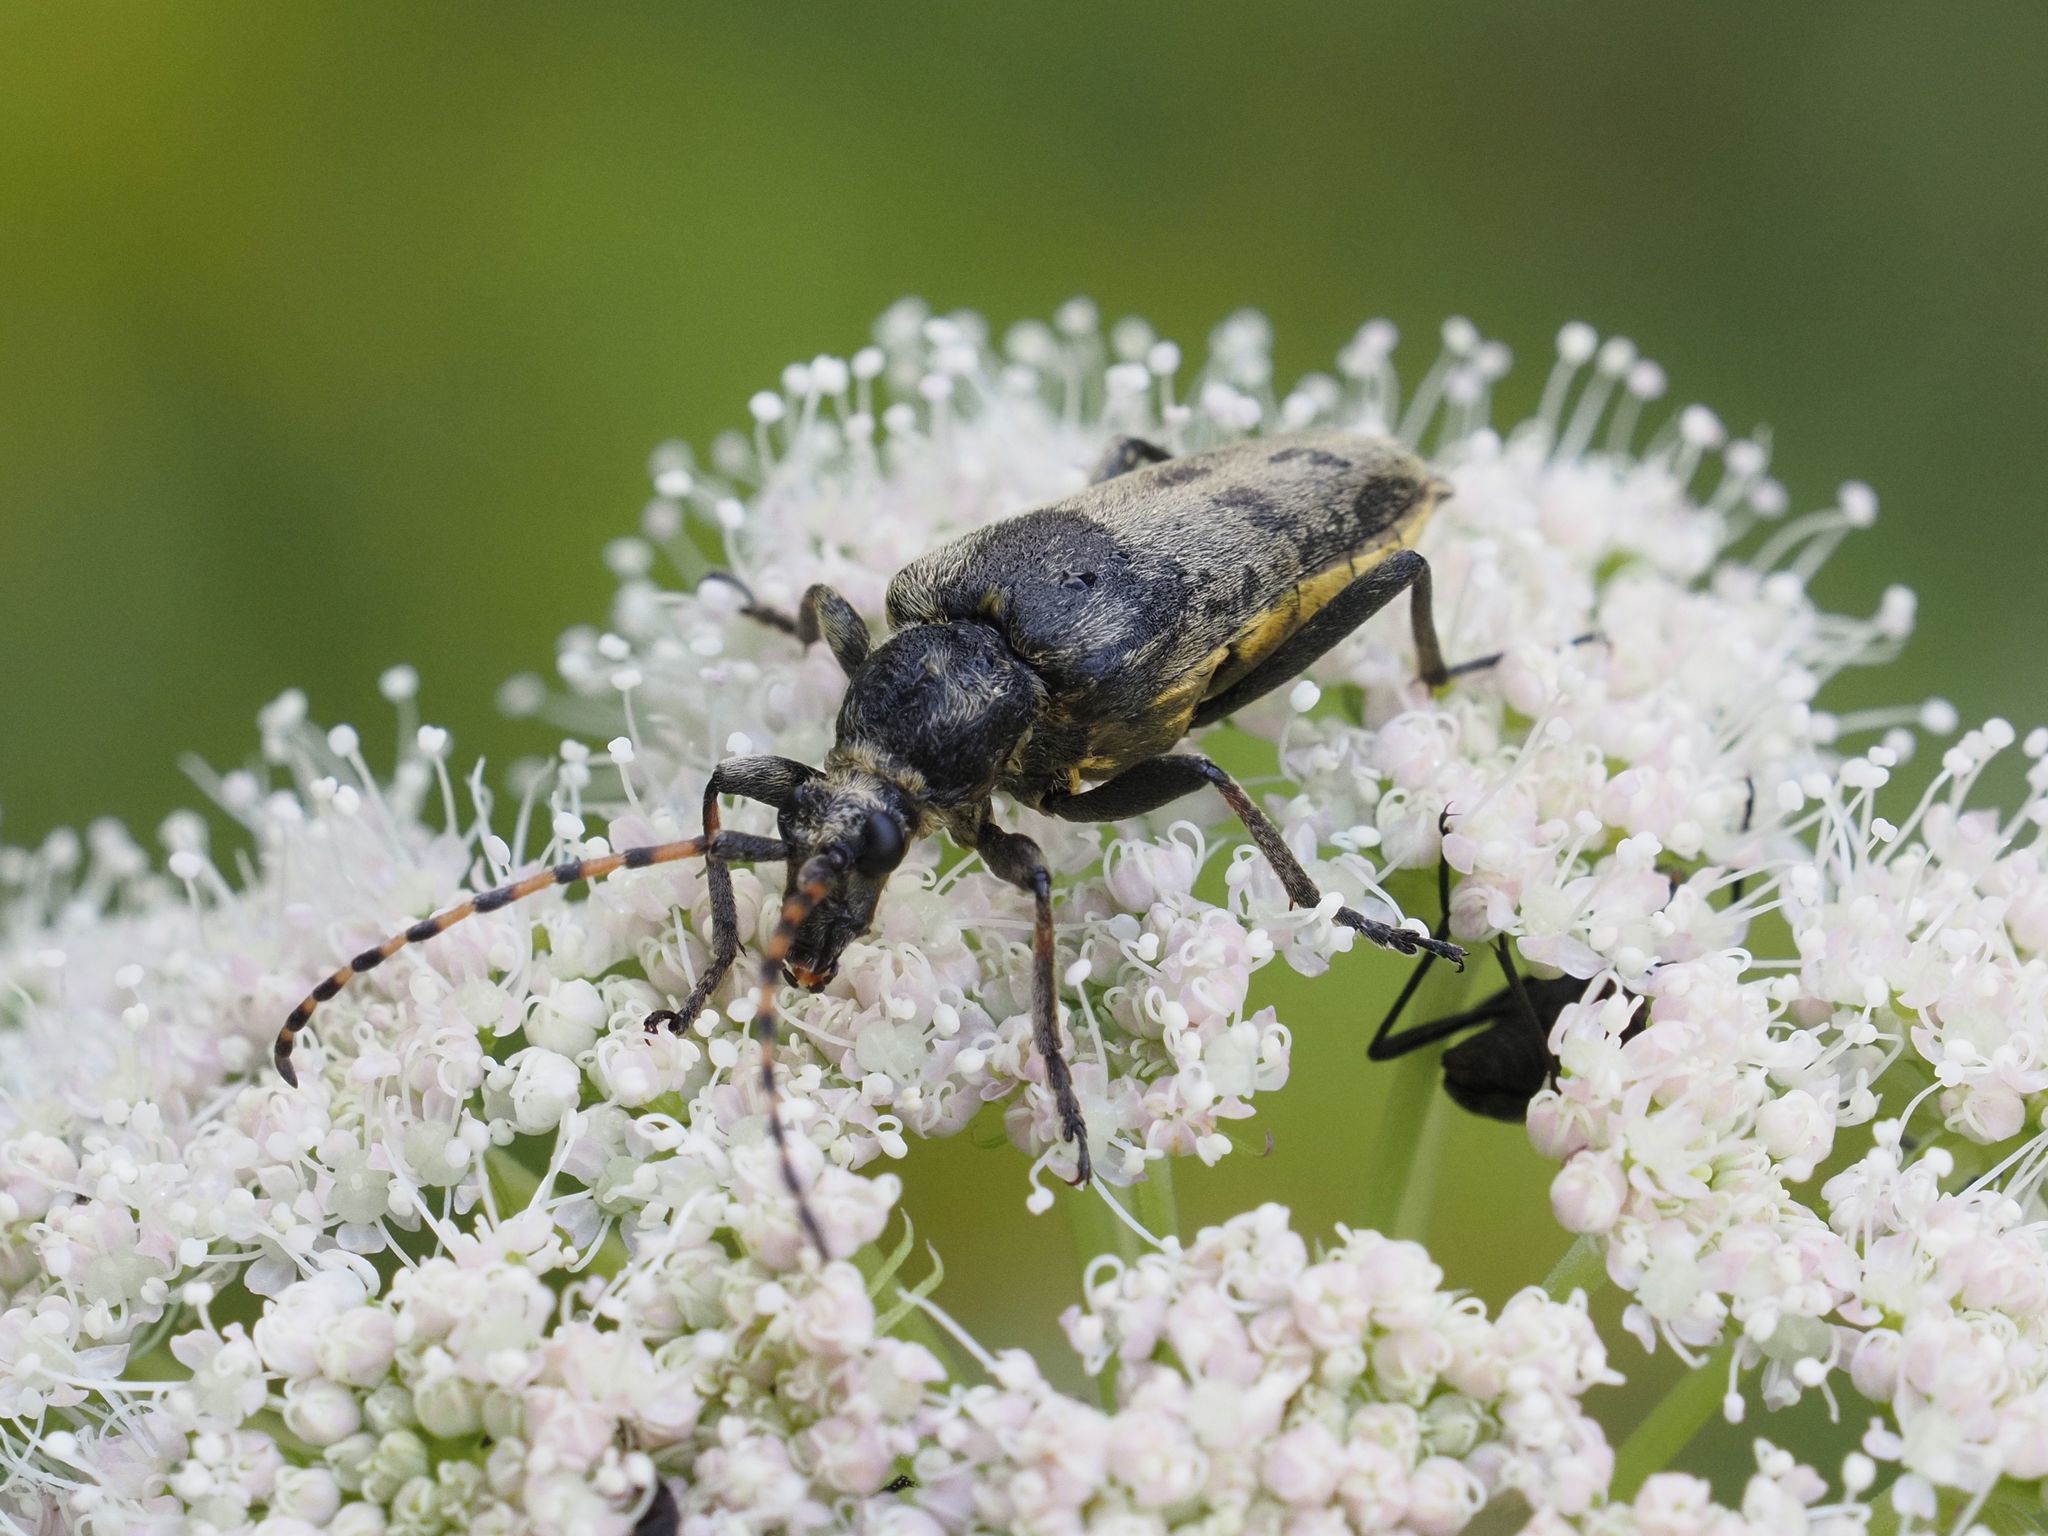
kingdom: Animalia
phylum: Arthropoda
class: Insecta
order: Coleoptera
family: Cerambycidae
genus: Lepturobosca
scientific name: Lepturobosca virens
